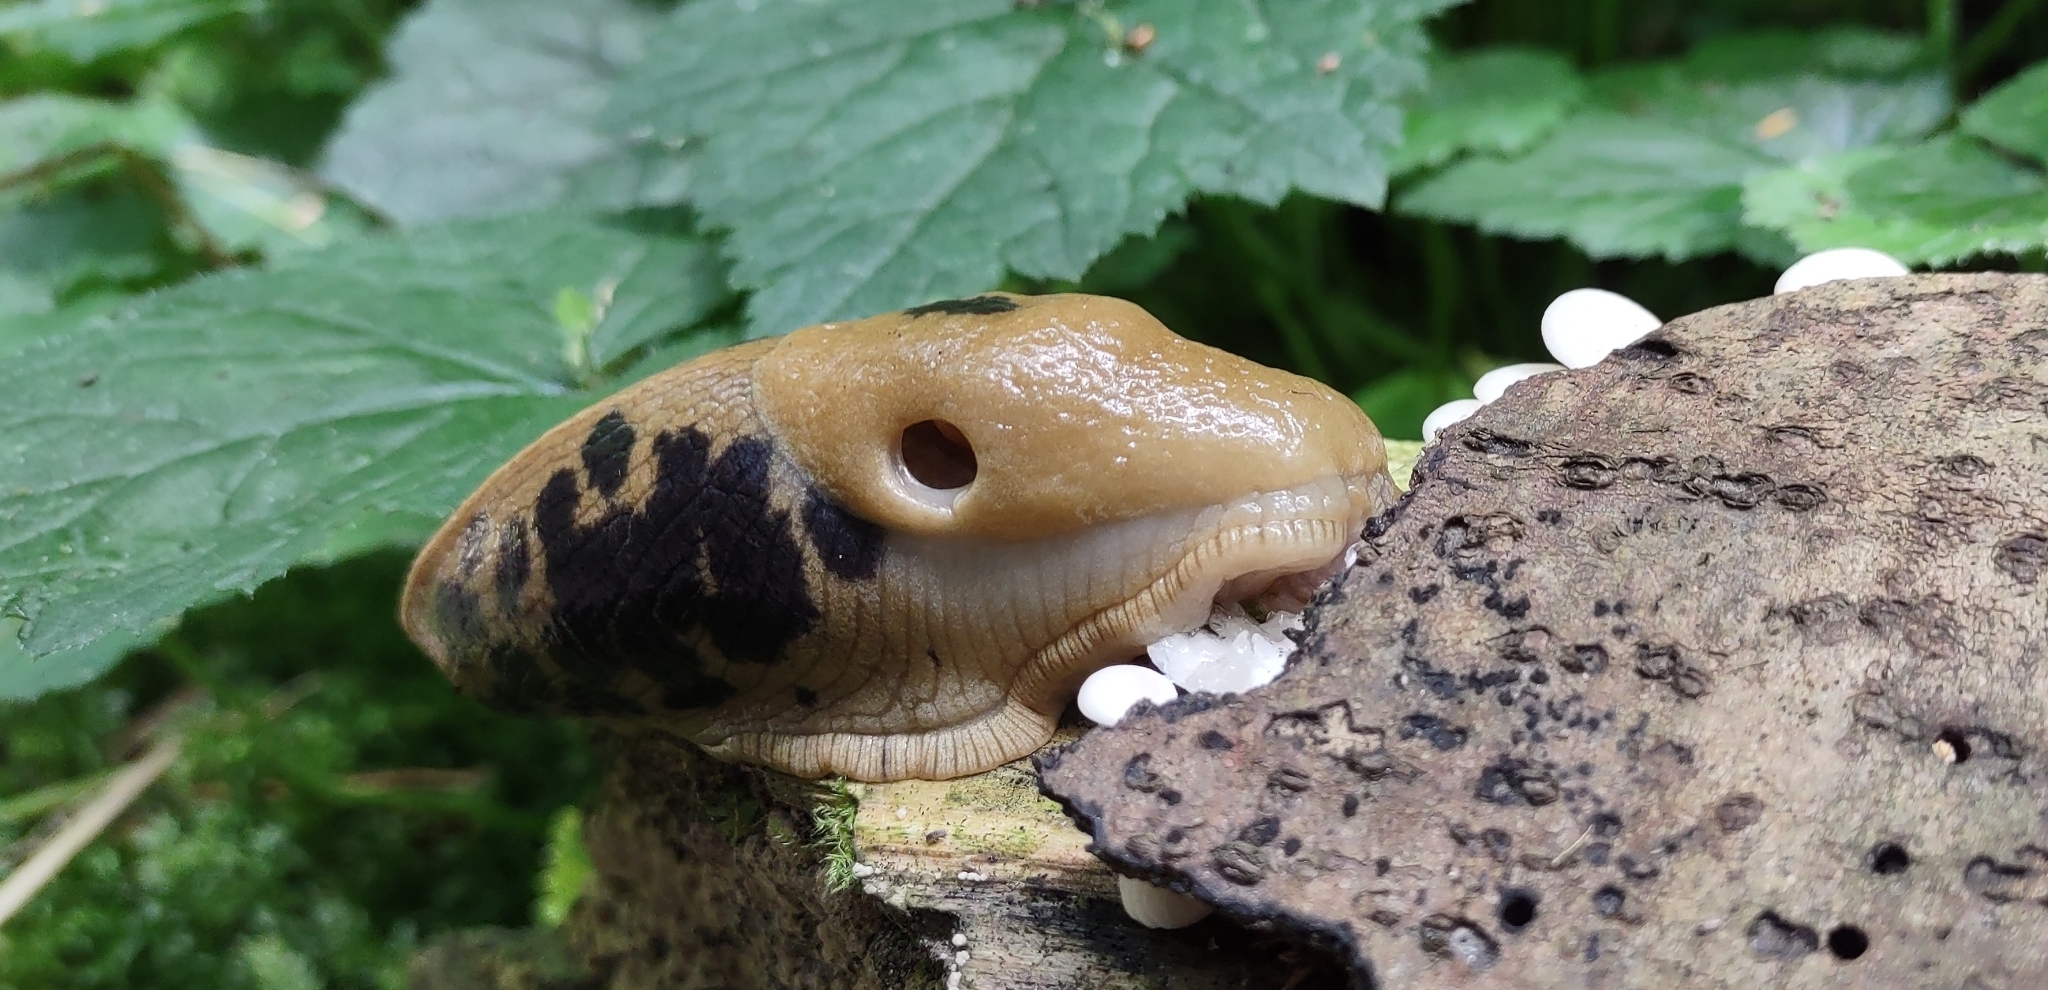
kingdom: Animalia
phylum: Mollusca
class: Gastropoda
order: Stylommatophora
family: Ariolimacidae
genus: Ariolimax
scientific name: Ariolimax columbianus
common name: Pacific banana slug
